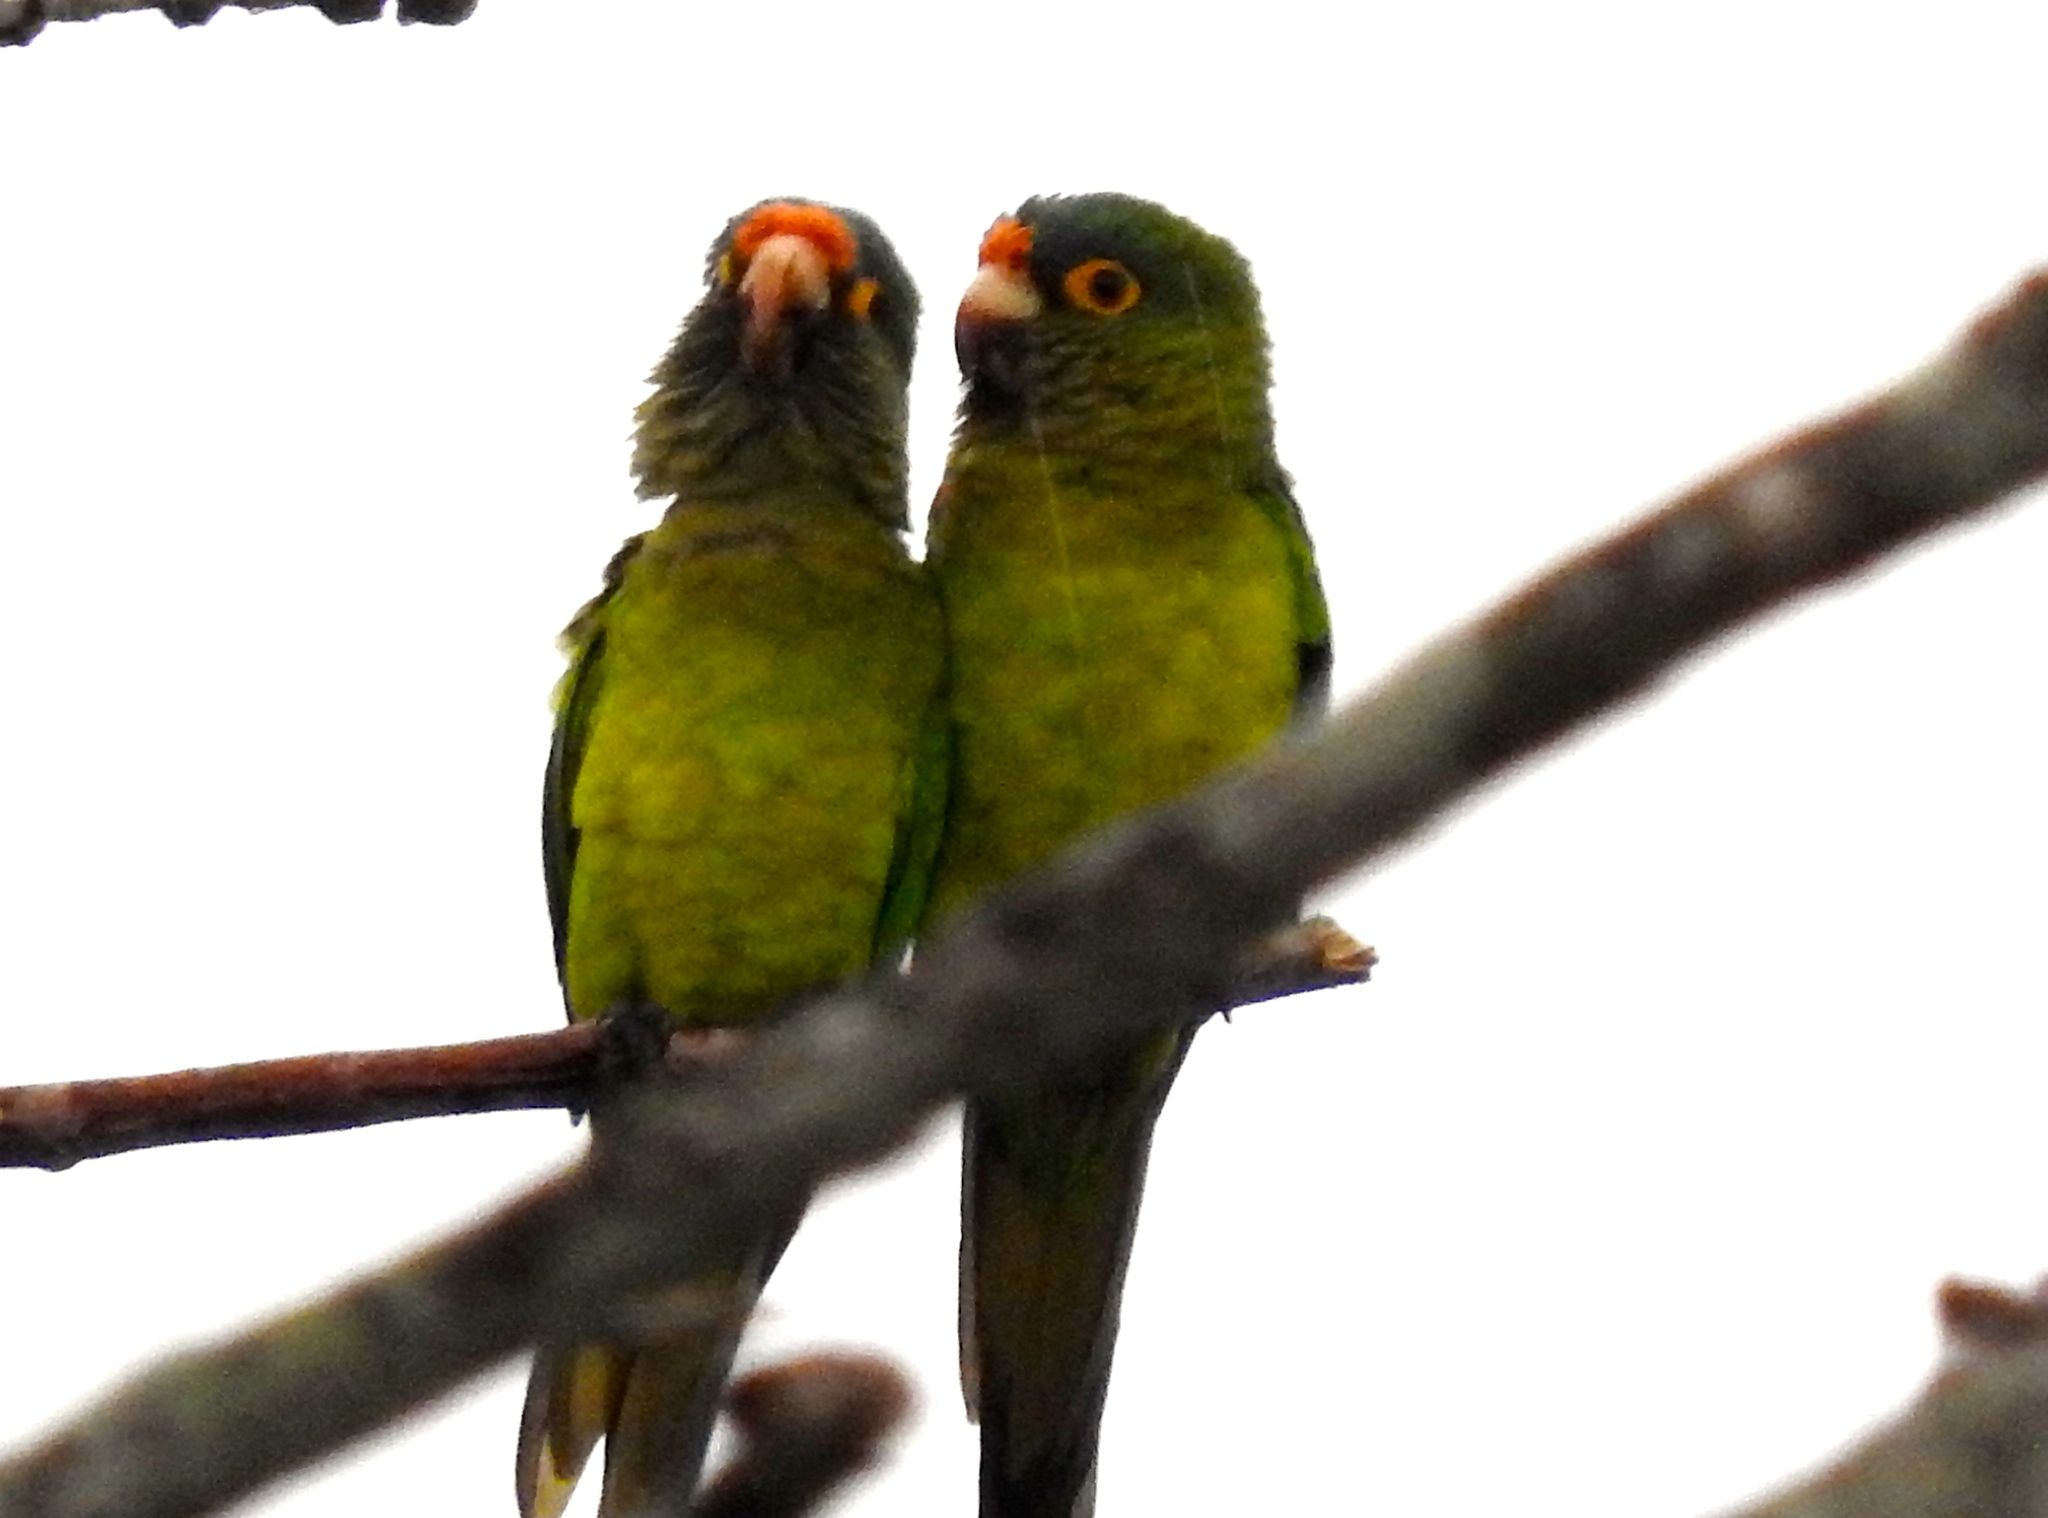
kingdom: Animalia
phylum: Chordata
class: Aves
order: Psittaciformes
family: Psittacidae
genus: Aratinga
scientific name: Aratinga canicularis
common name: Orange-fronted parakeet
